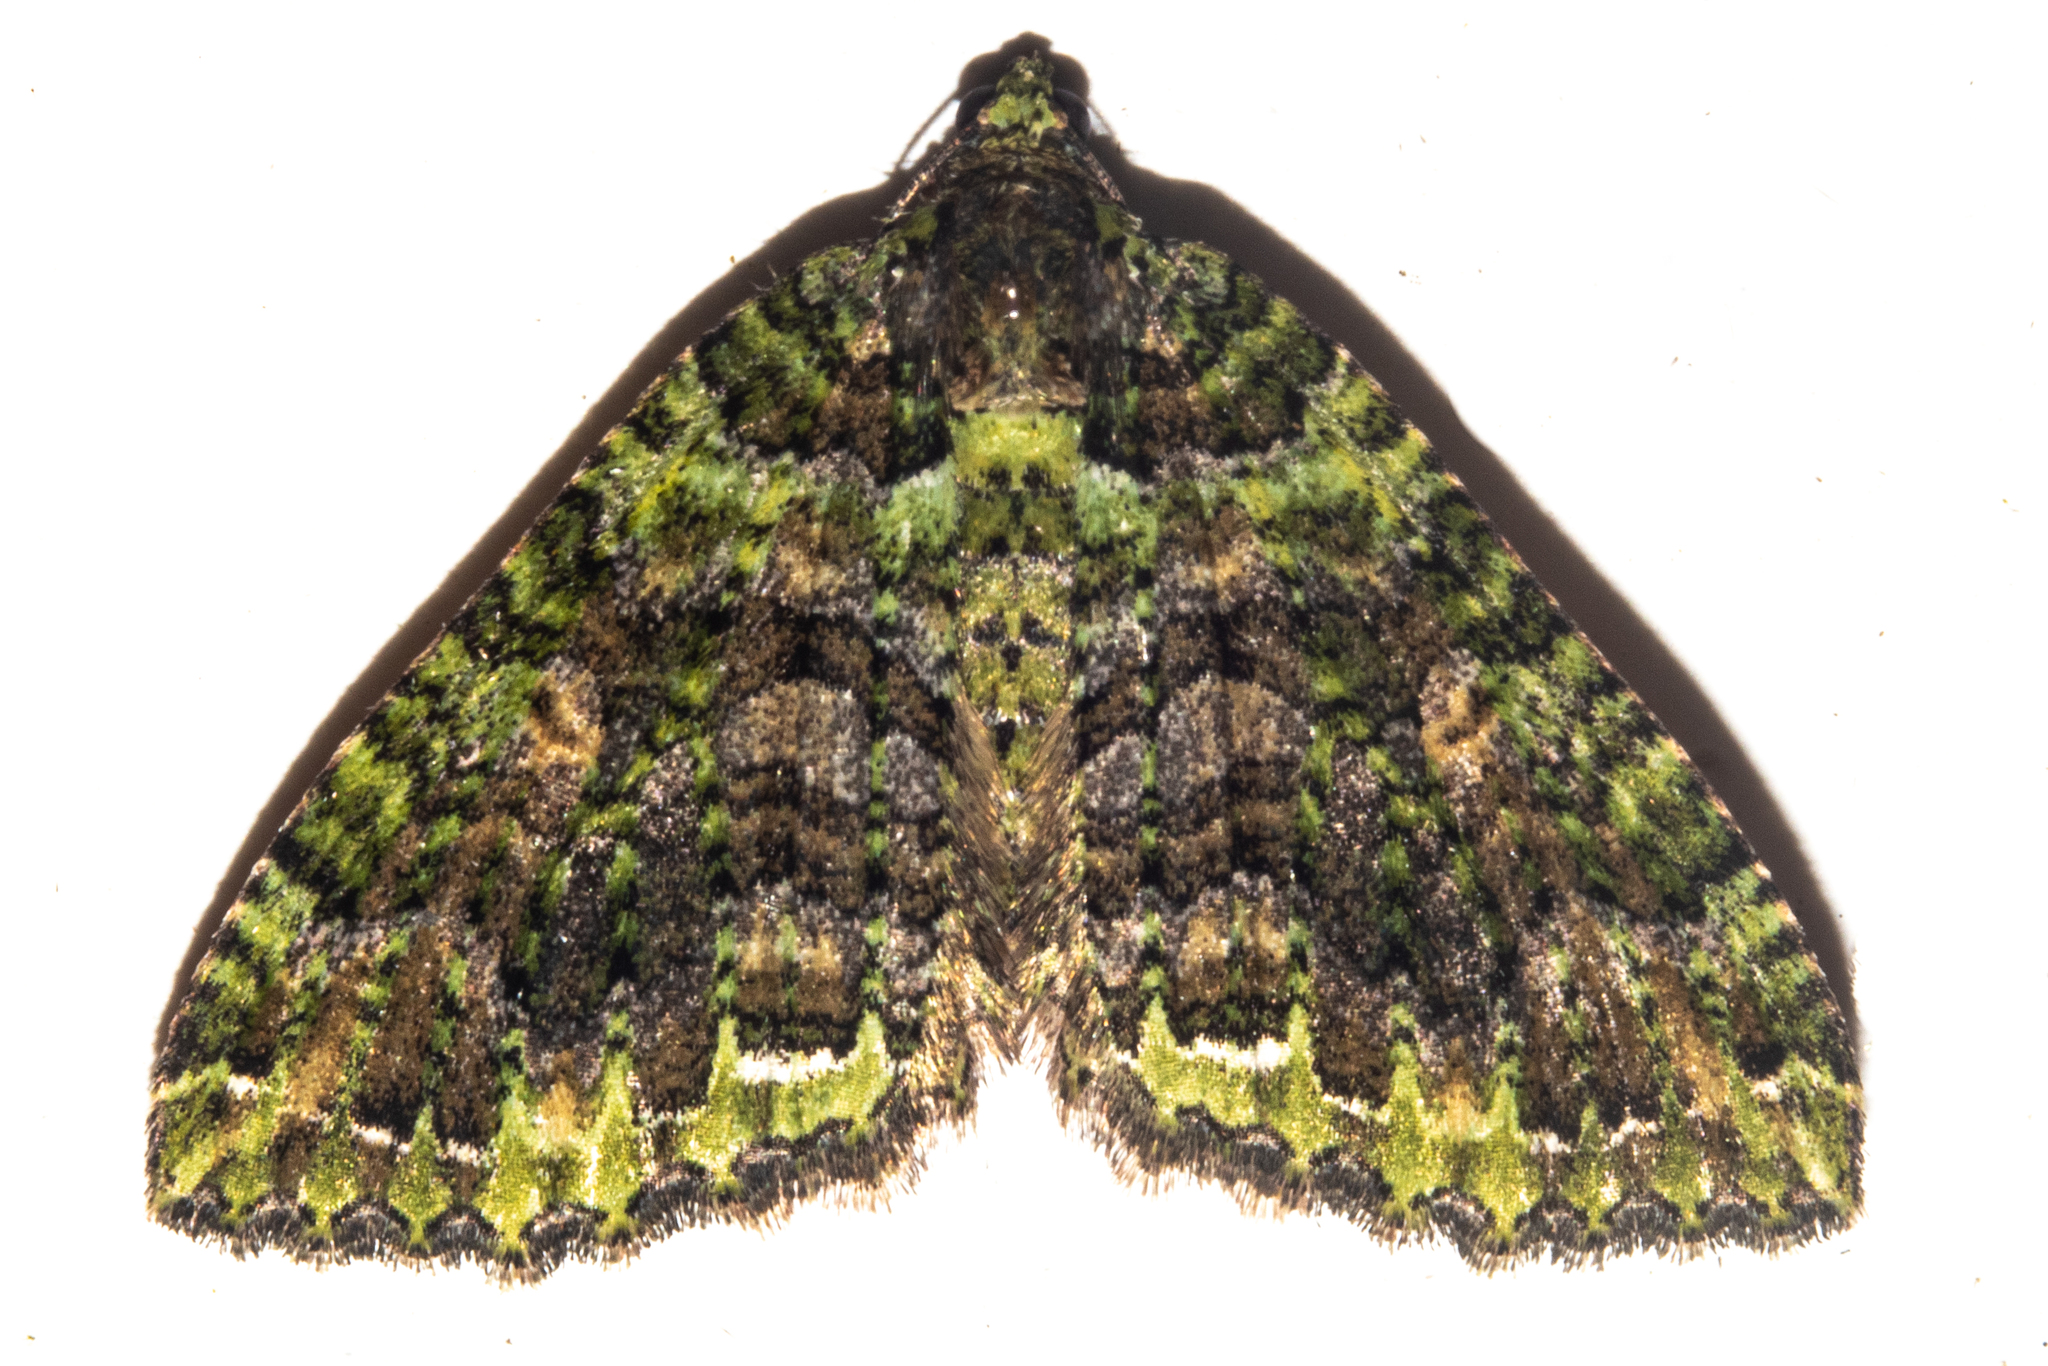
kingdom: Animalia
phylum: Arthropoda
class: Insecta
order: Lepidoptera
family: Geometridae
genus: Austrocidaria
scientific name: Austrocidaria similata
